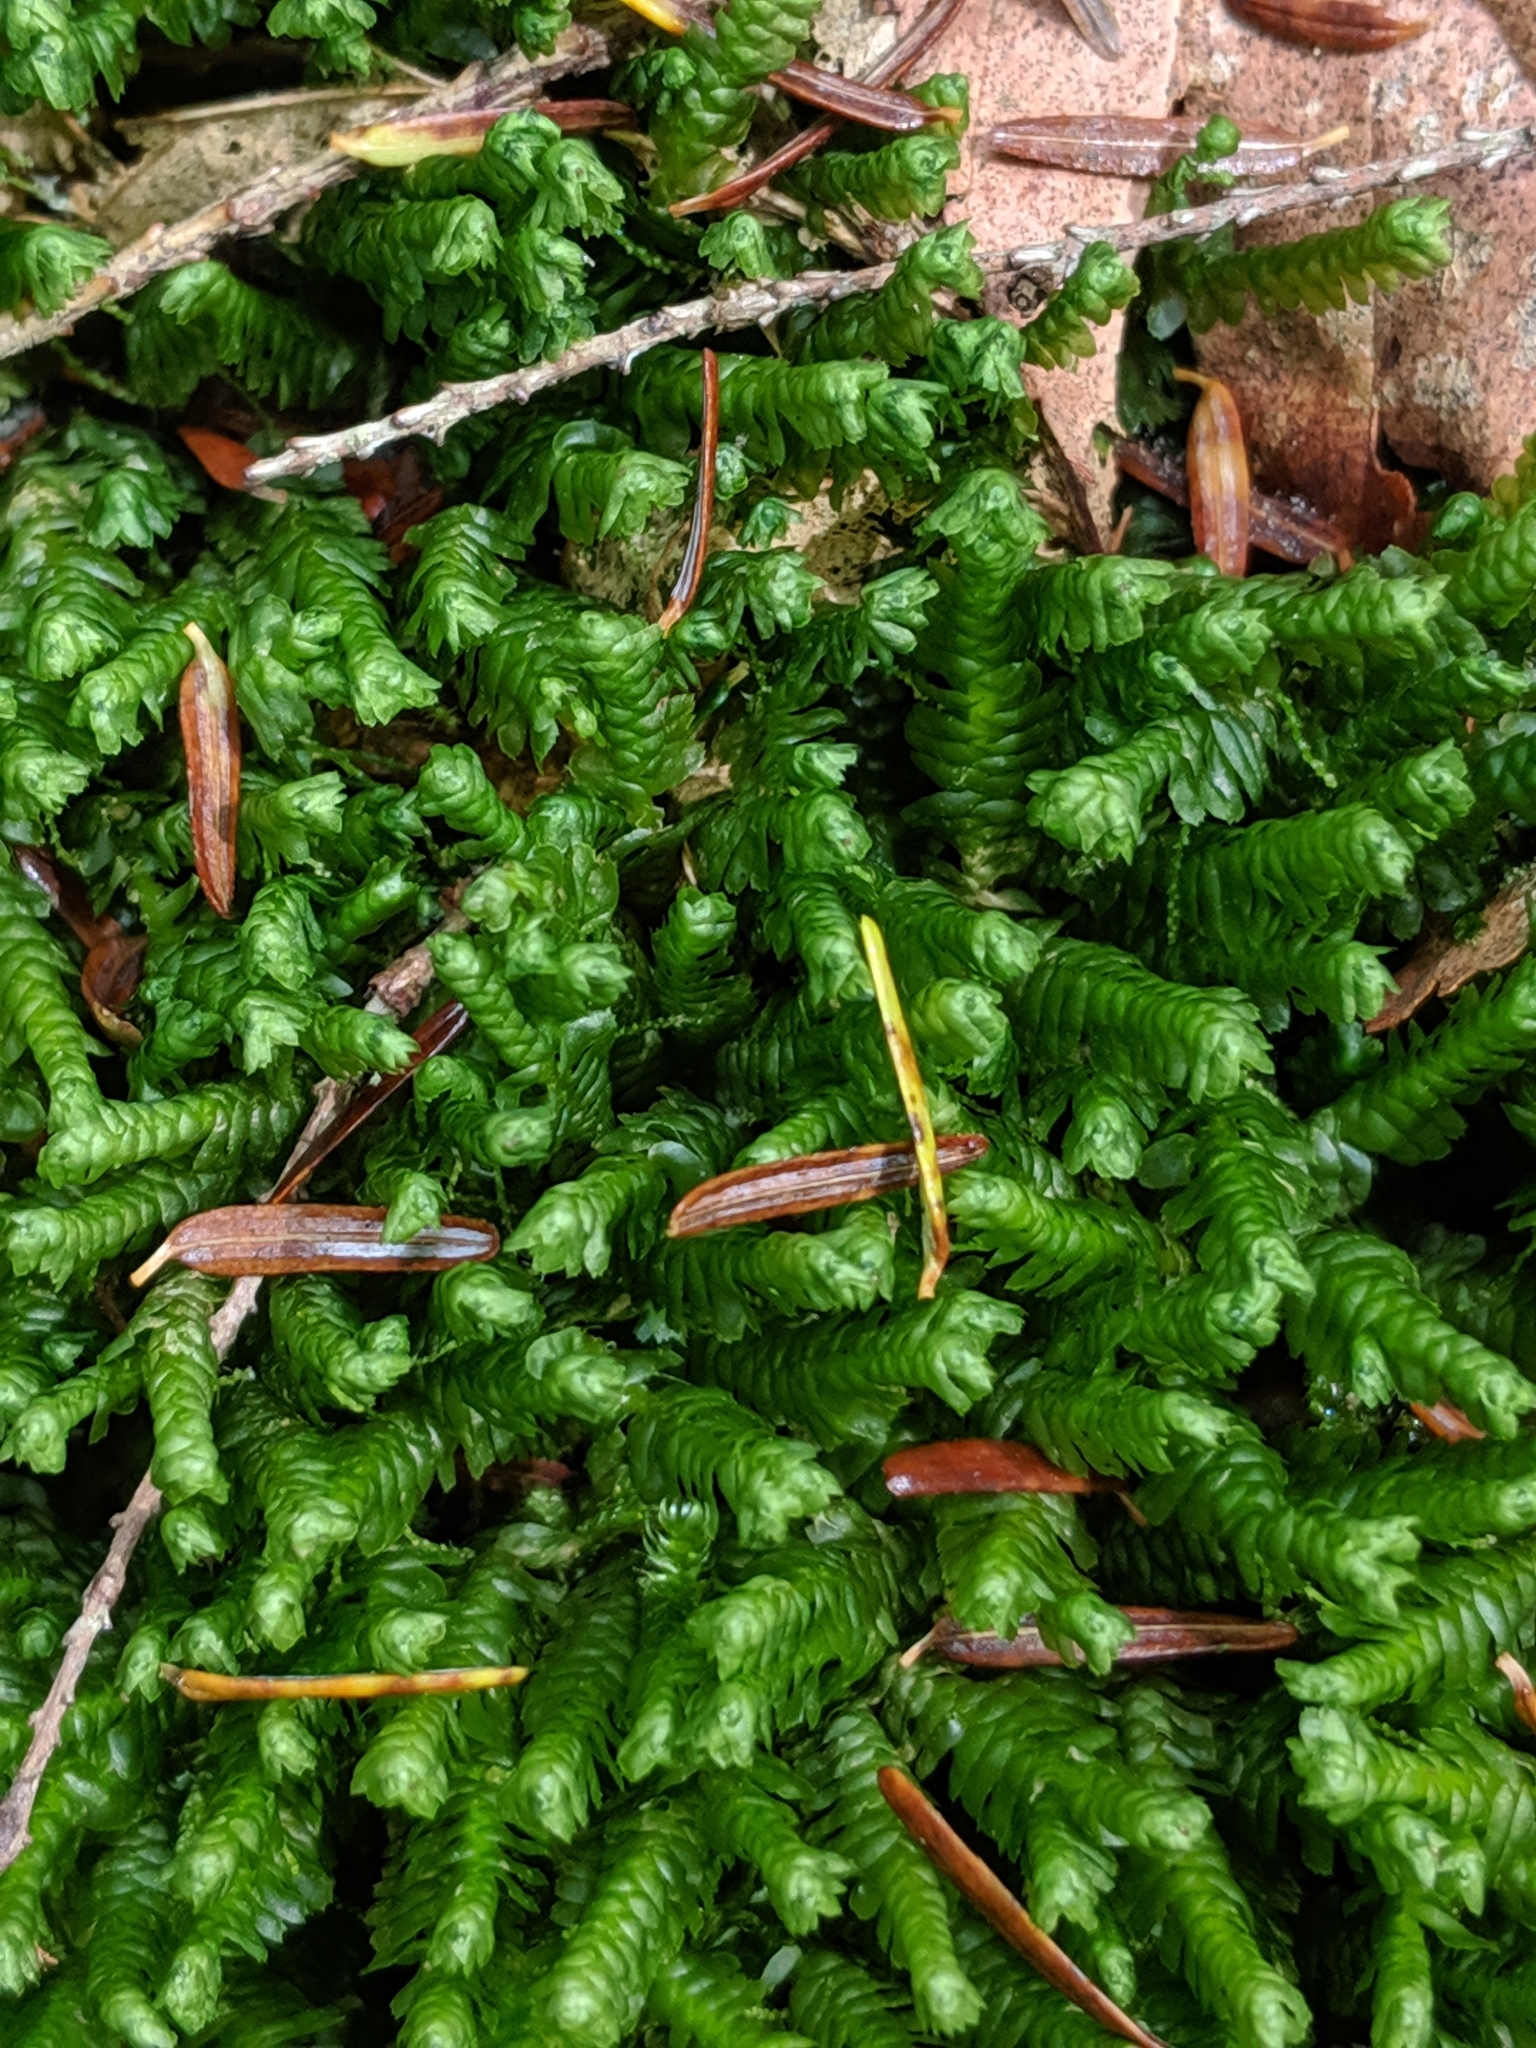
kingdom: Plantae
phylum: Marchantiophyta
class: Jungermanniopsida
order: Jungermanniales
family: Lepidoziaceae
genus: Bazzania
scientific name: Bazzania trilobata
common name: Three-lobed whipwort
